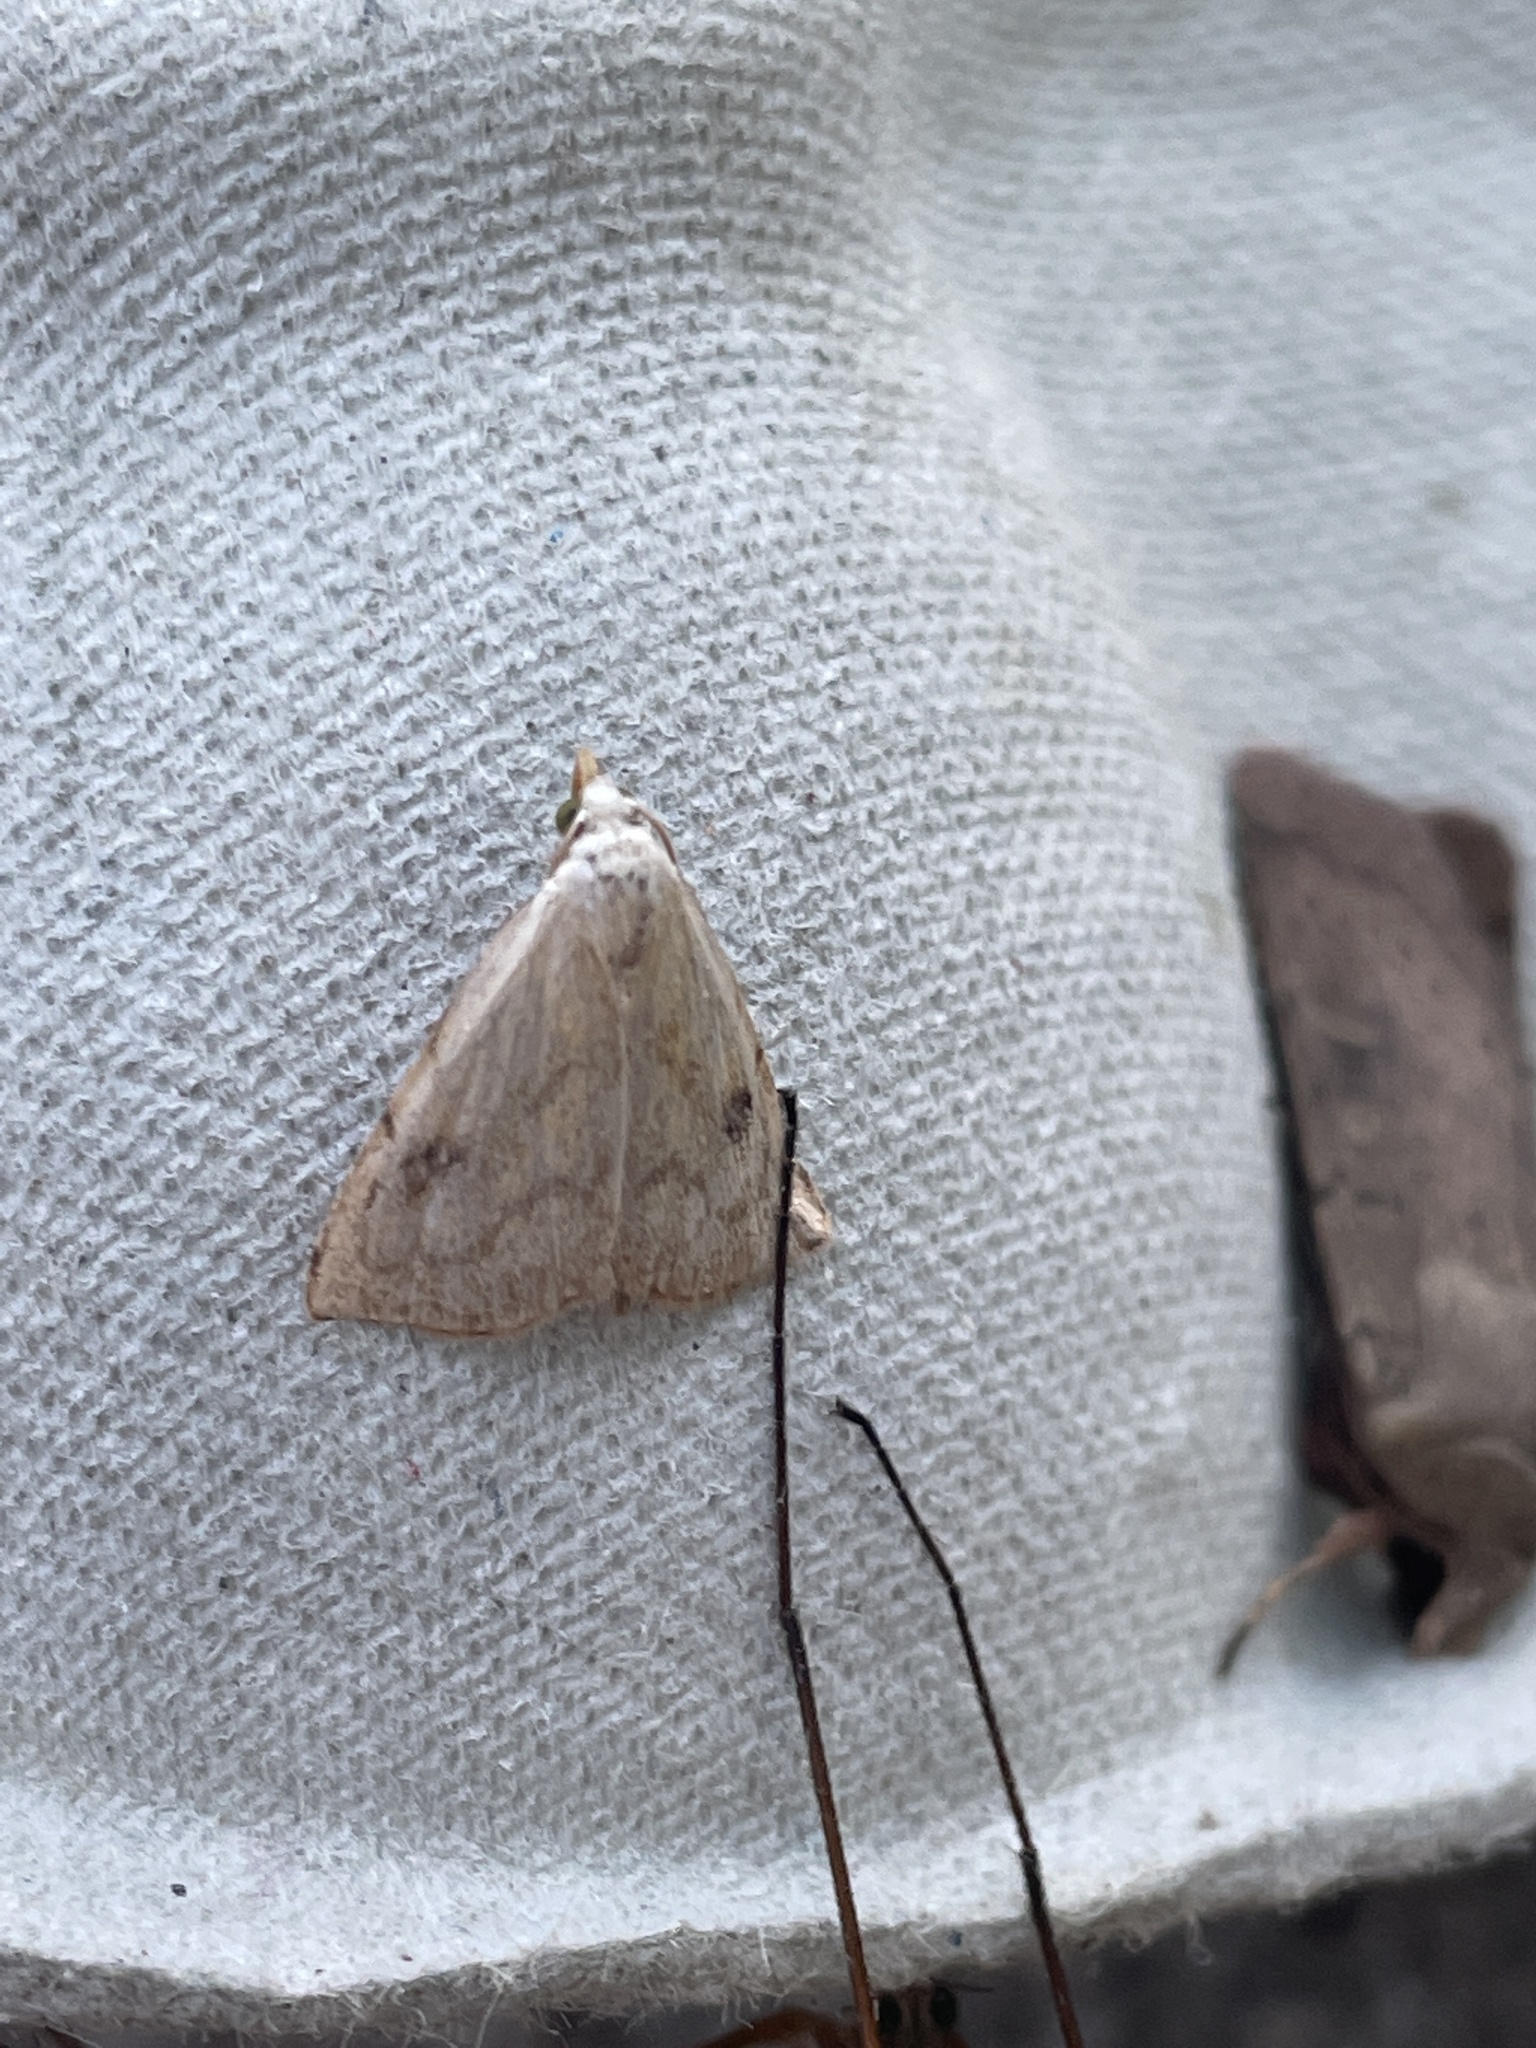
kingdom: Animalia
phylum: Arthropoda
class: Insecta
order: Lepidoptera
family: Erebidae
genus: Rivula
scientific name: Rivula sericealis
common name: Straw dot
